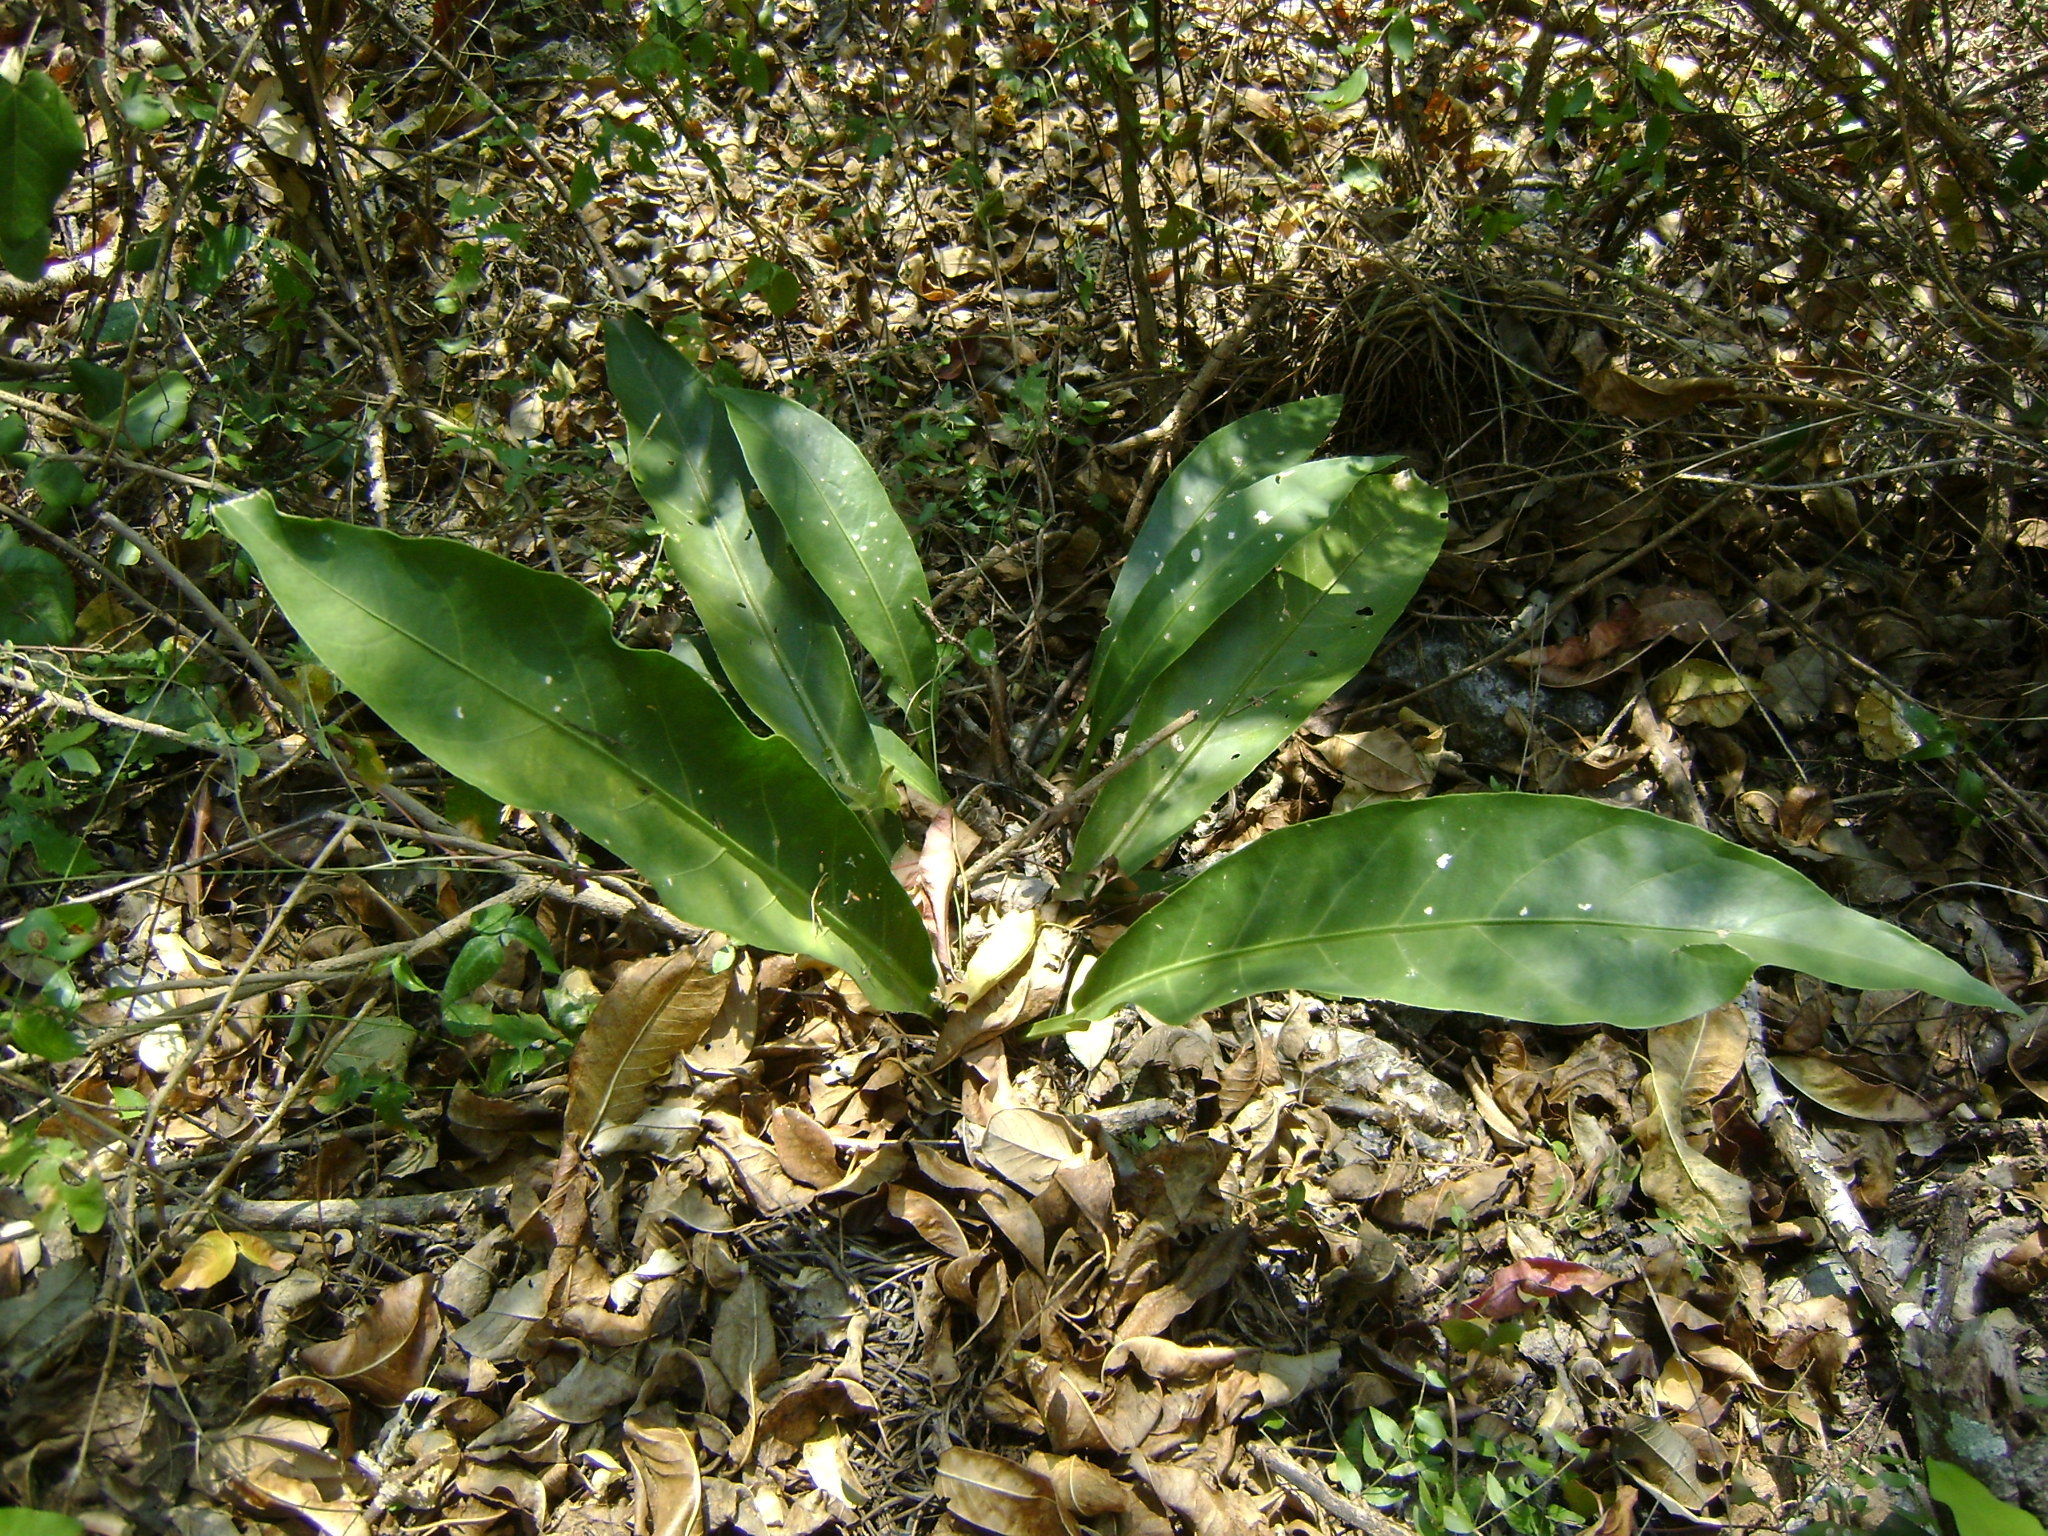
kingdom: Plantae
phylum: Tracheophyta
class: Liliopsida
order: Alismatales
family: Araceae
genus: Anthurium
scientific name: Anthurium schlechtendalii
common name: Laceleaf
